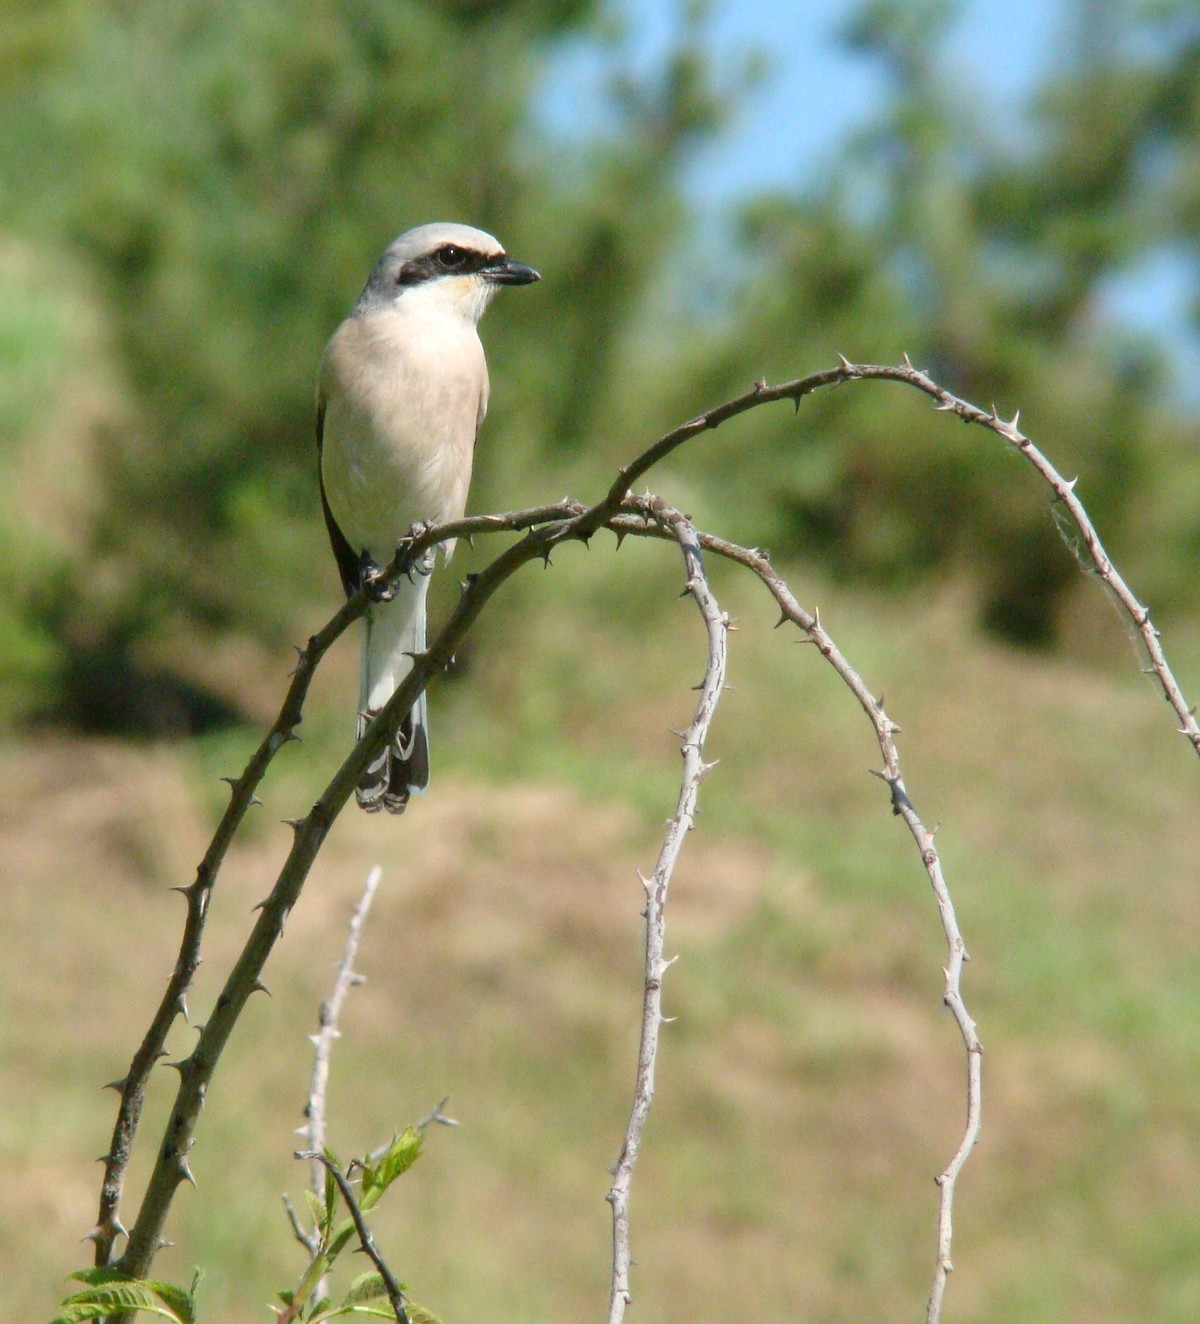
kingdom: Animalia
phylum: Chordata
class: Aves
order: Passeriformes
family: Laniidae
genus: Lanius
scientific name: Lanius collurio
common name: Red-backed shrike
